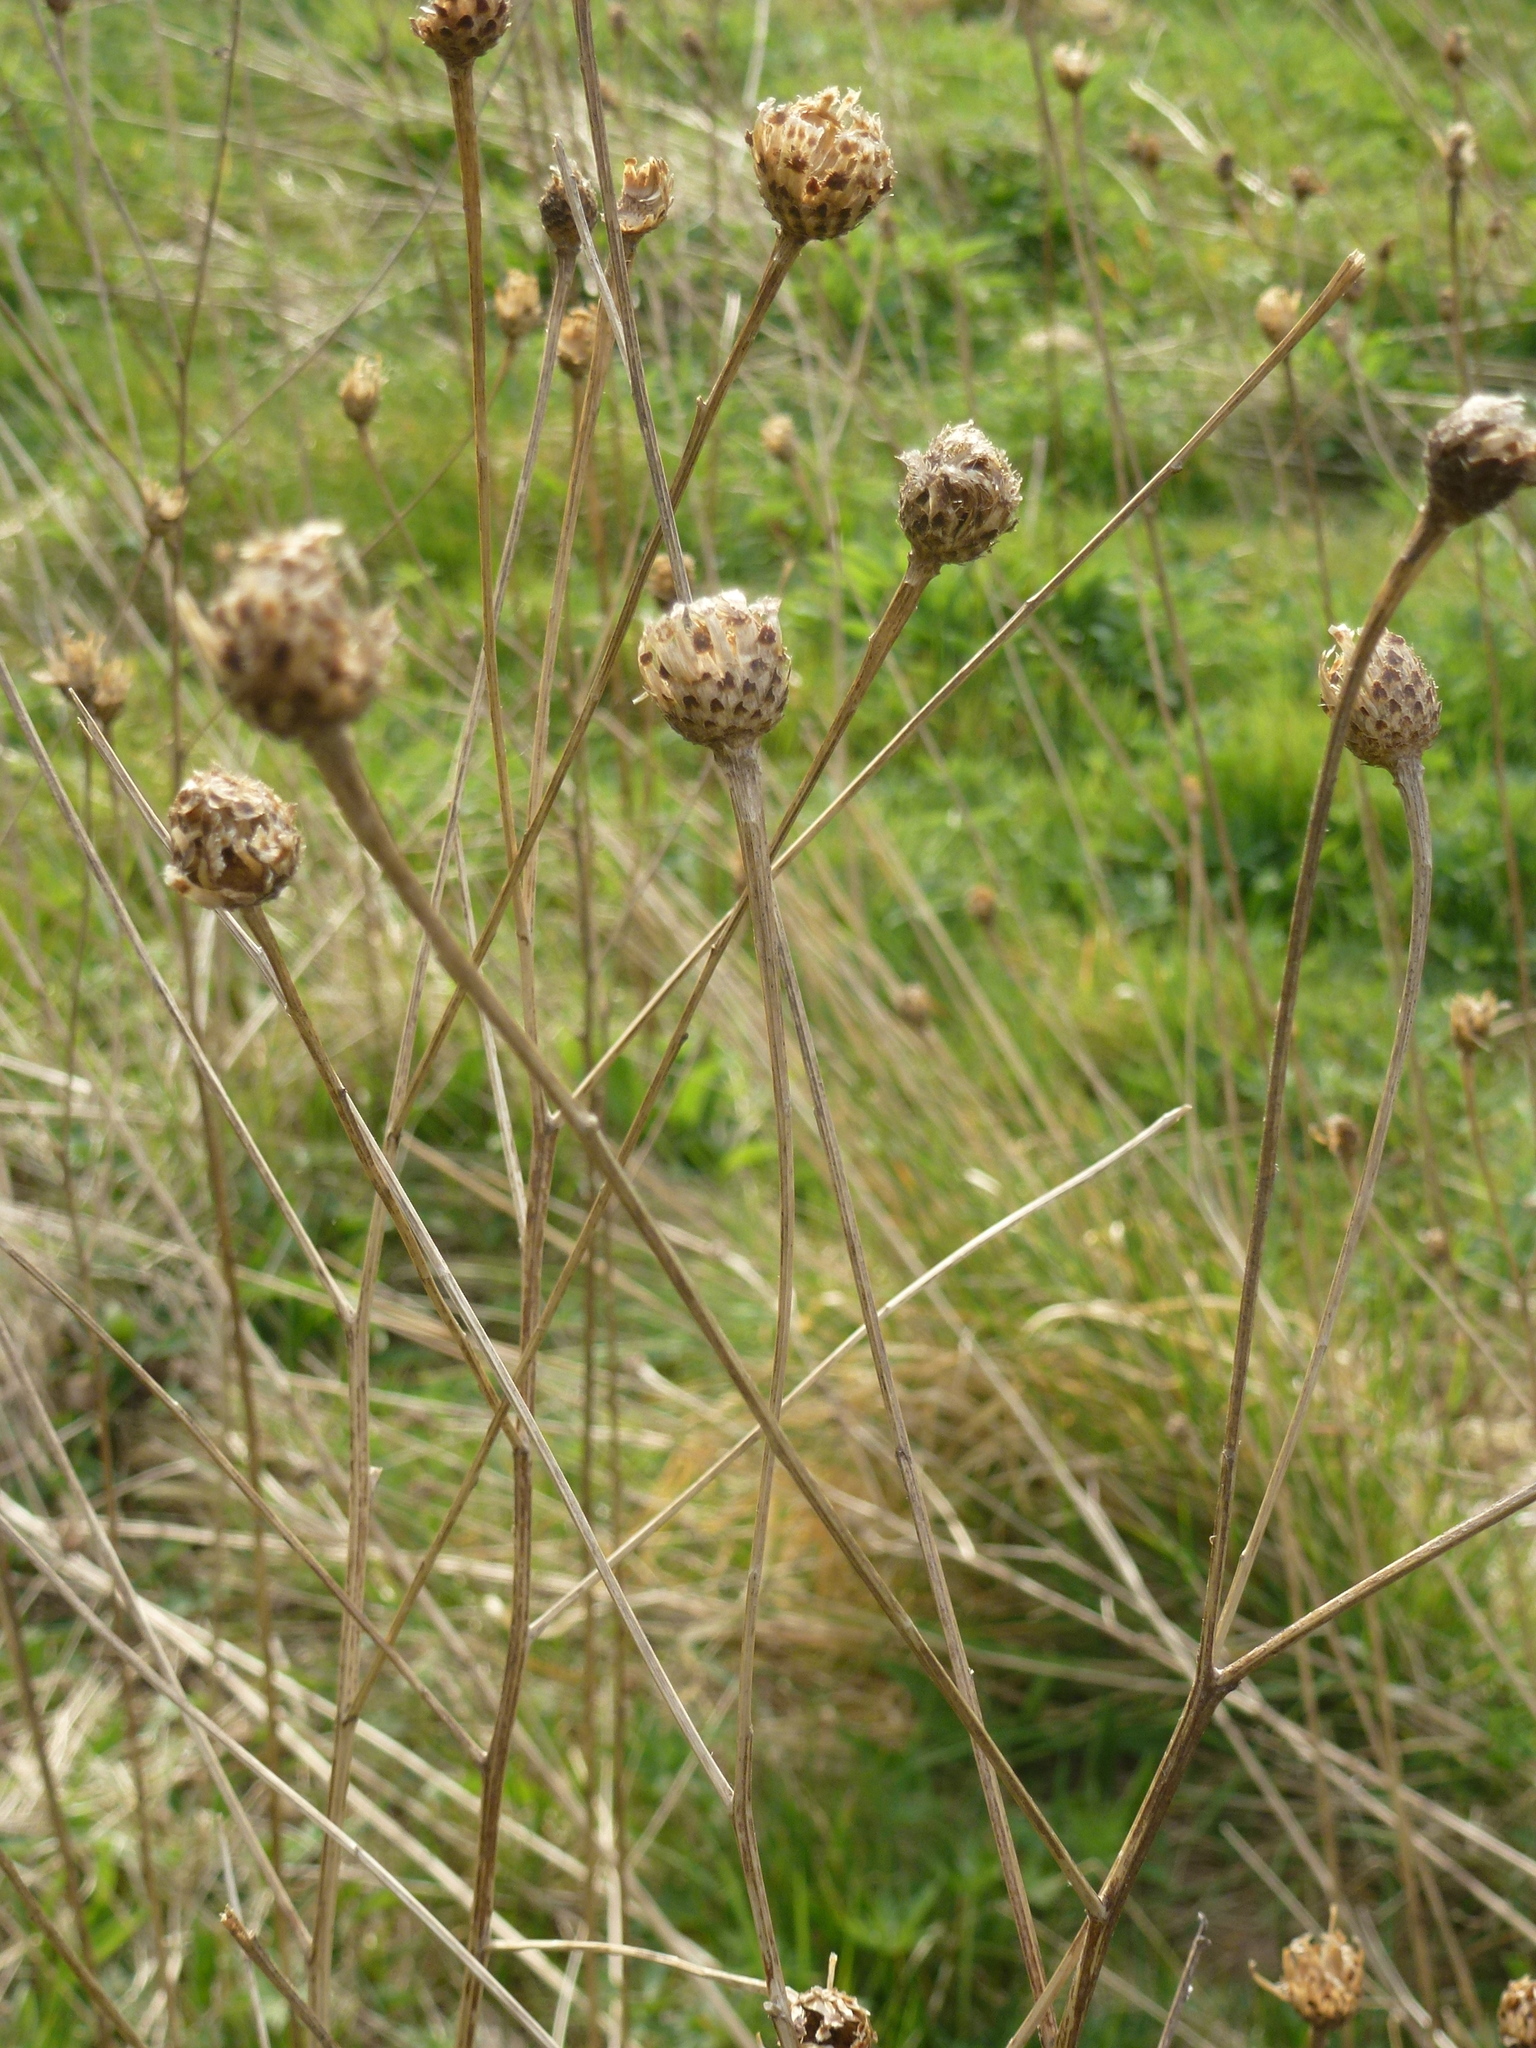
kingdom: Plantae
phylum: Tracheophyta
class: Magnoliopsida
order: Asterales
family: Asteraceae
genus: Centaurea
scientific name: Centaurea nigra
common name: Lesser knapweed
